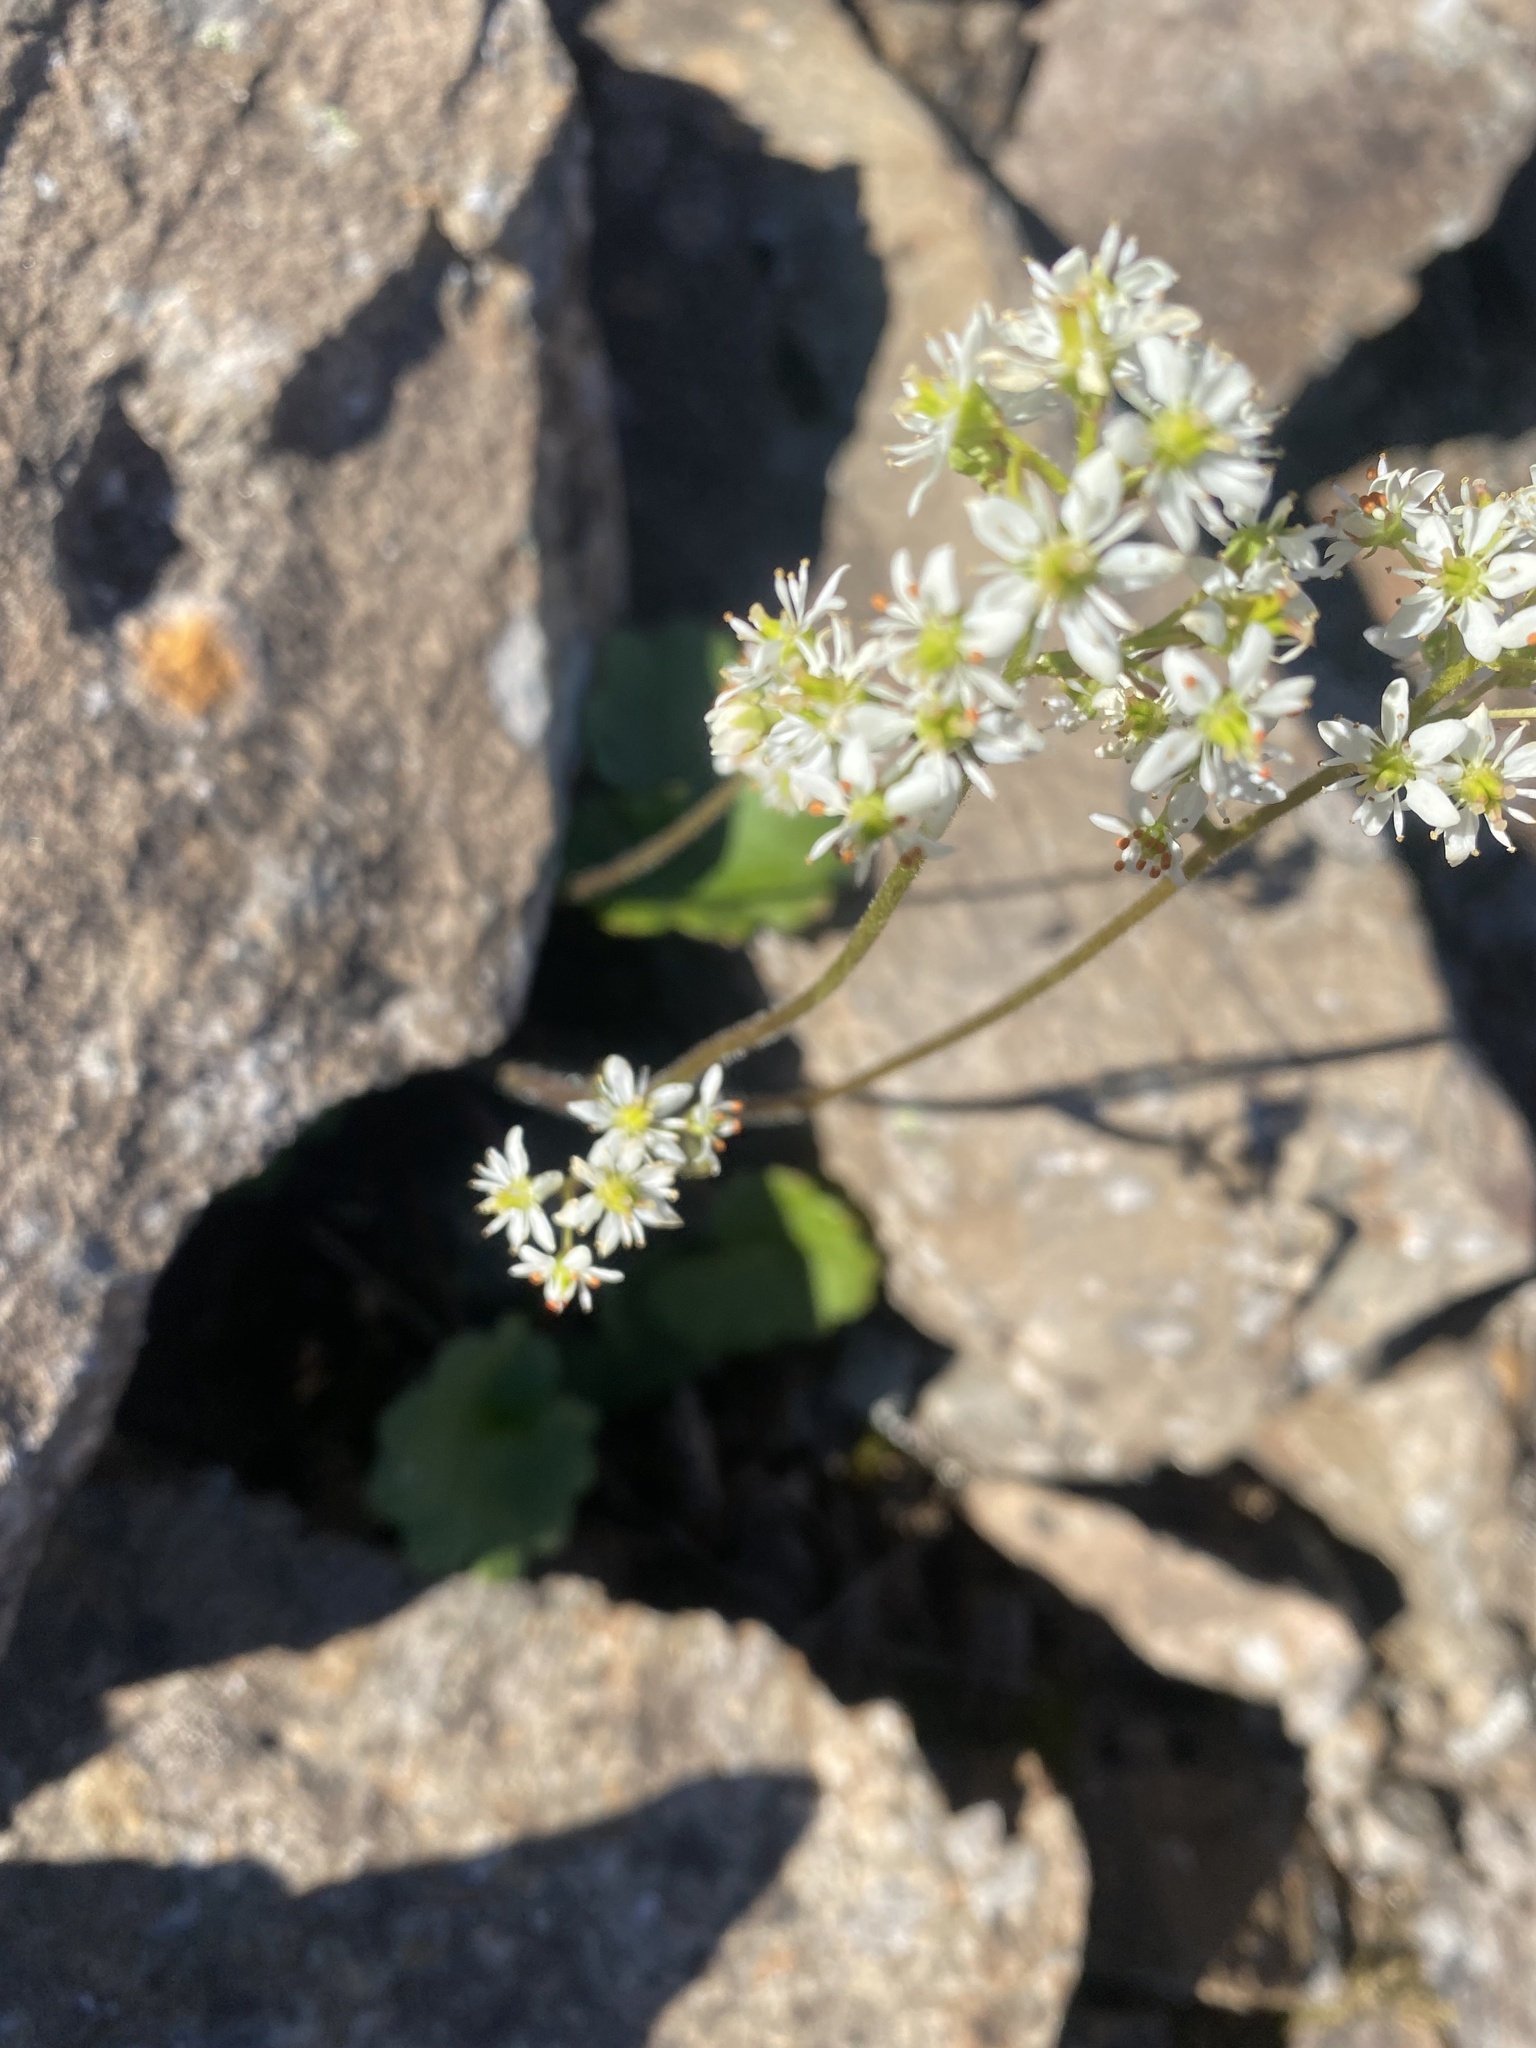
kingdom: Plantae
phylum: Tracheophyta
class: Magnoliopsida
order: Saxifragales
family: Saxifragaceae
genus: Micranthes
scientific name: Micranthes nelsoniana
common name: Nelson's saxifrage
